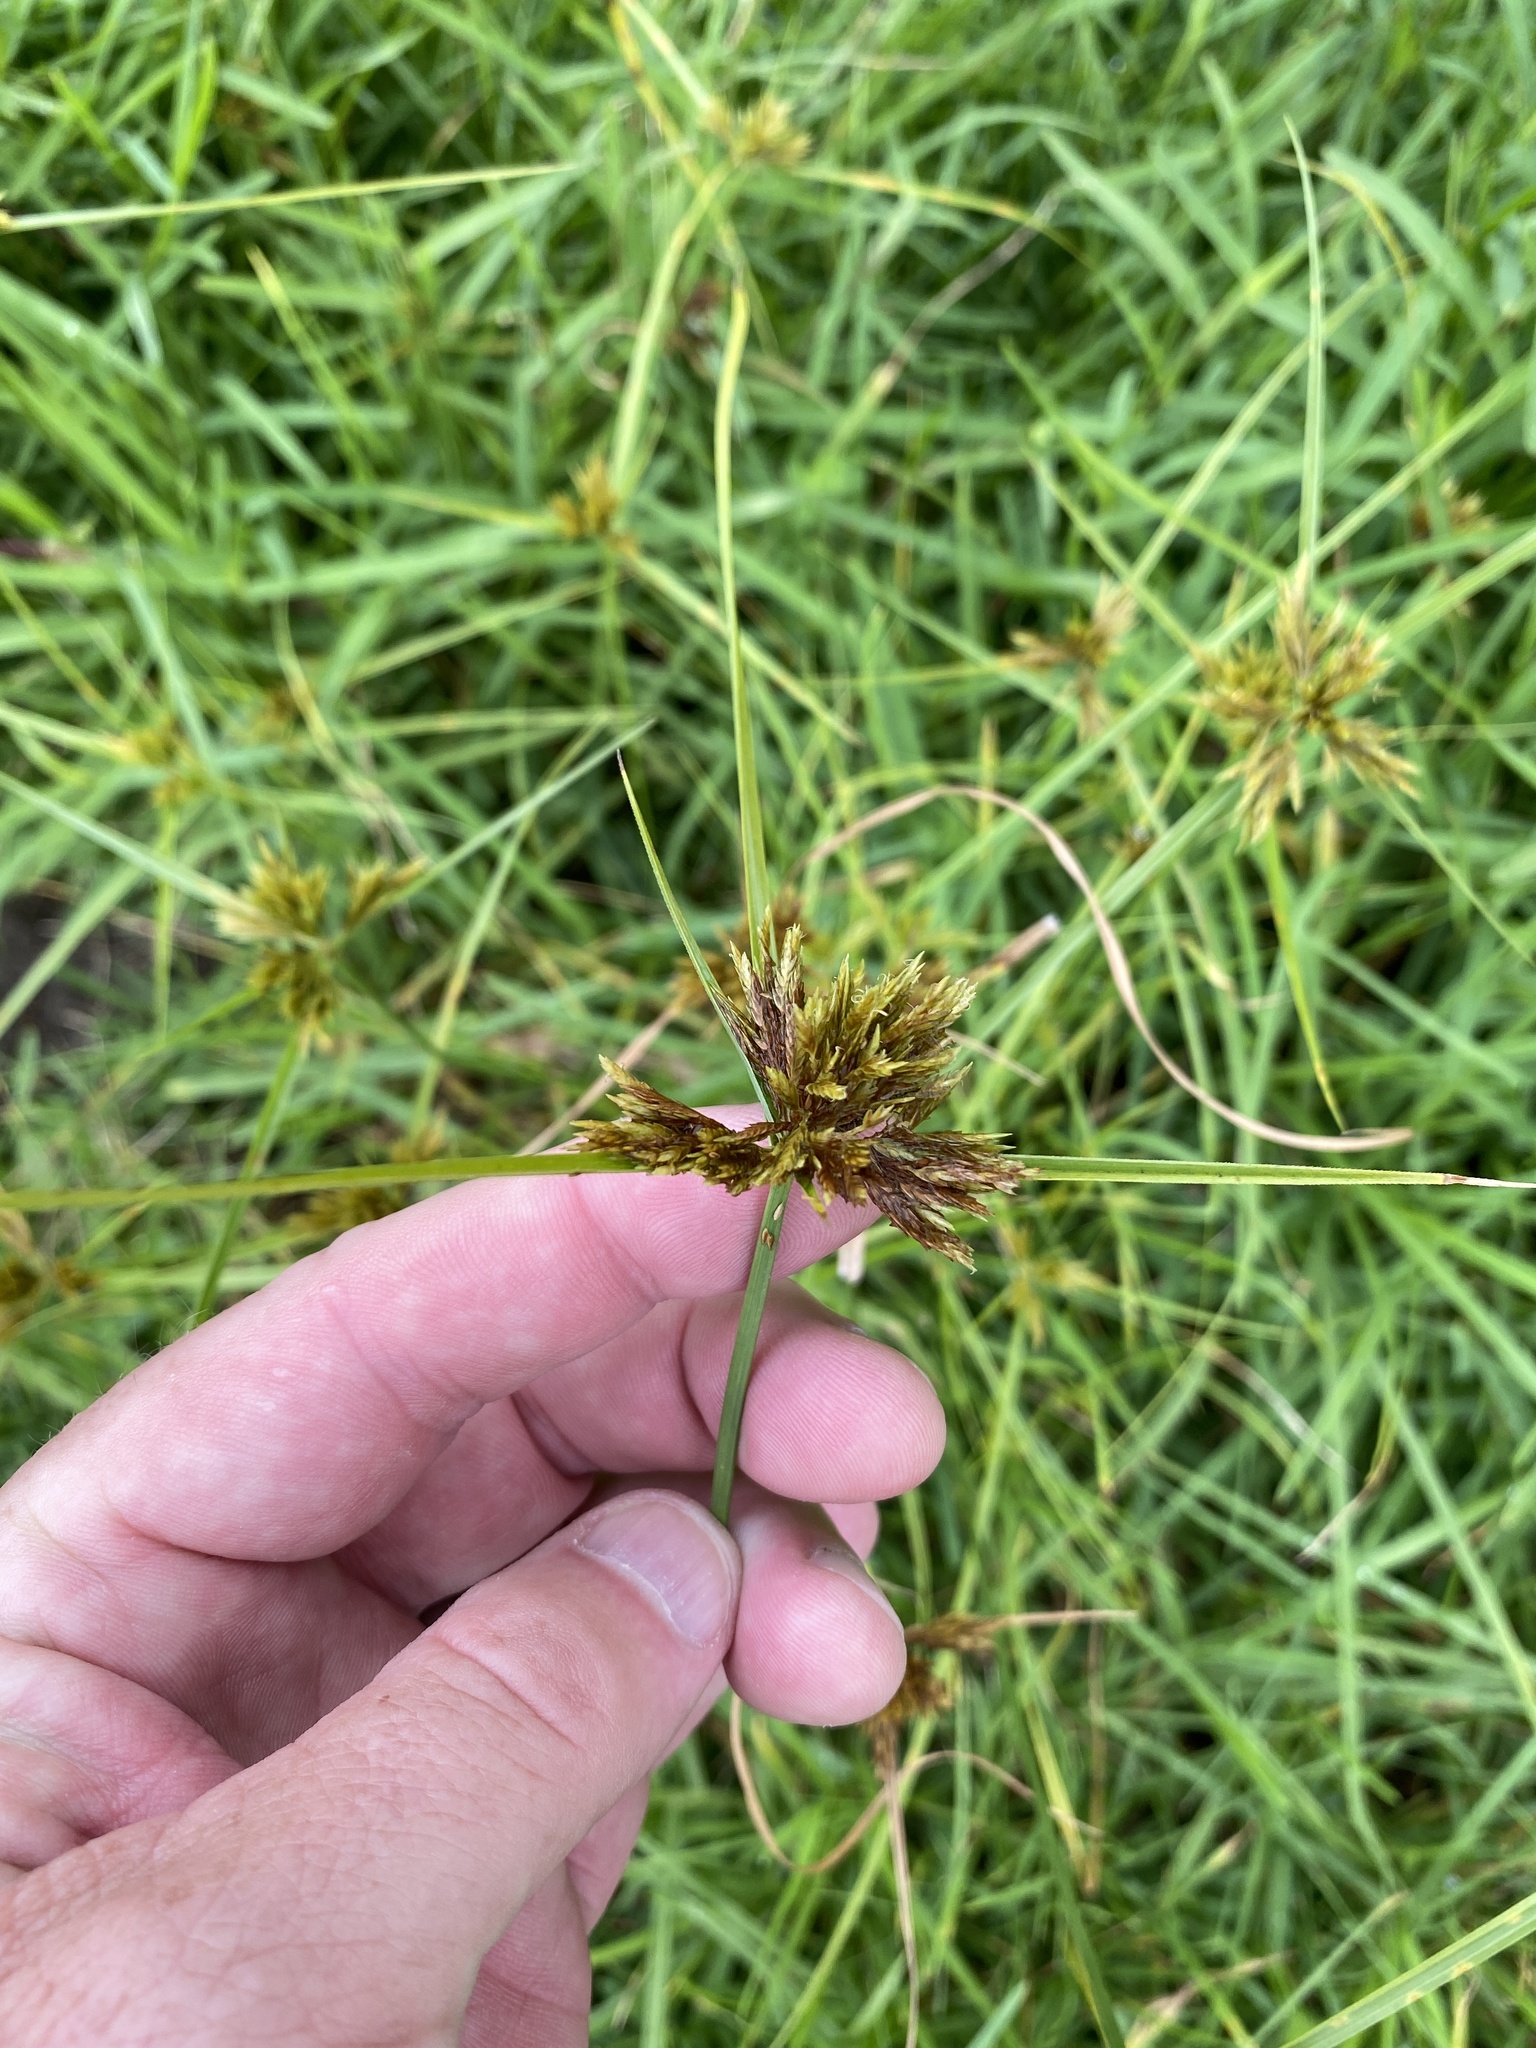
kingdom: Plantae
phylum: Tracheophyta
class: Liliopsida
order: Poales
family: Cyperaceae
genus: Cyperus
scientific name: Cyperus polystachyos
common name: Bunchy flat sedge
